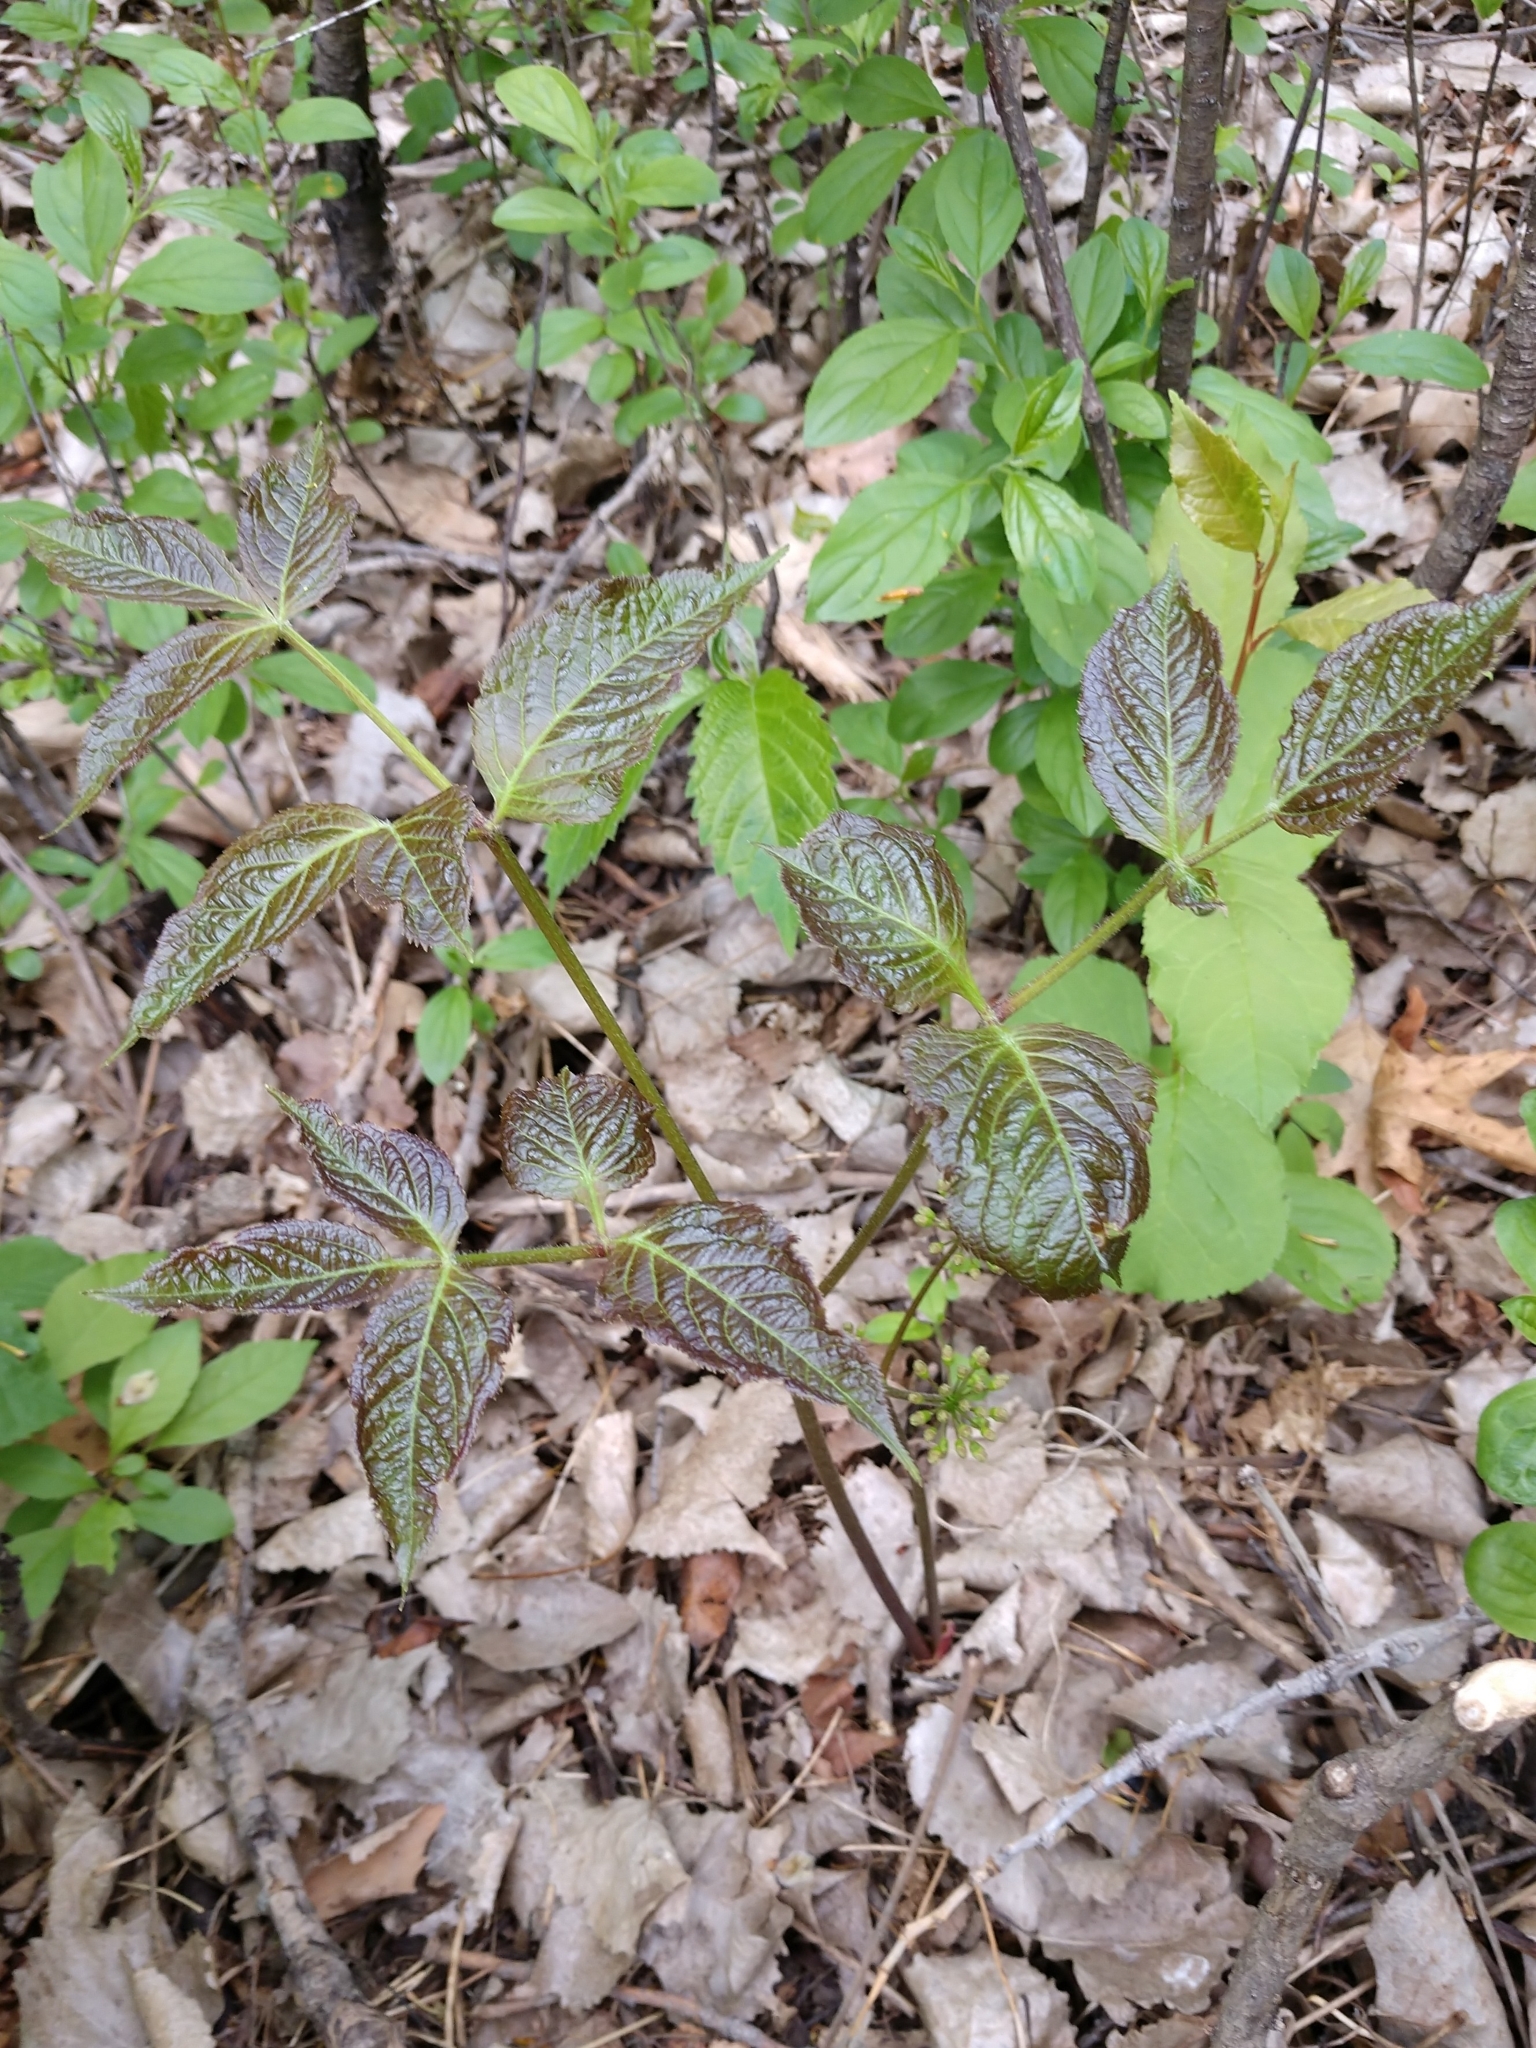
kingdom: Plantae
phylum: Tracheophyta
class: Magnoliopsida
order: Apiales
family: Araliaceae
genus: Aralia
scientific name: Aralia nudicaulis
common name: Wild sarsaparilla
